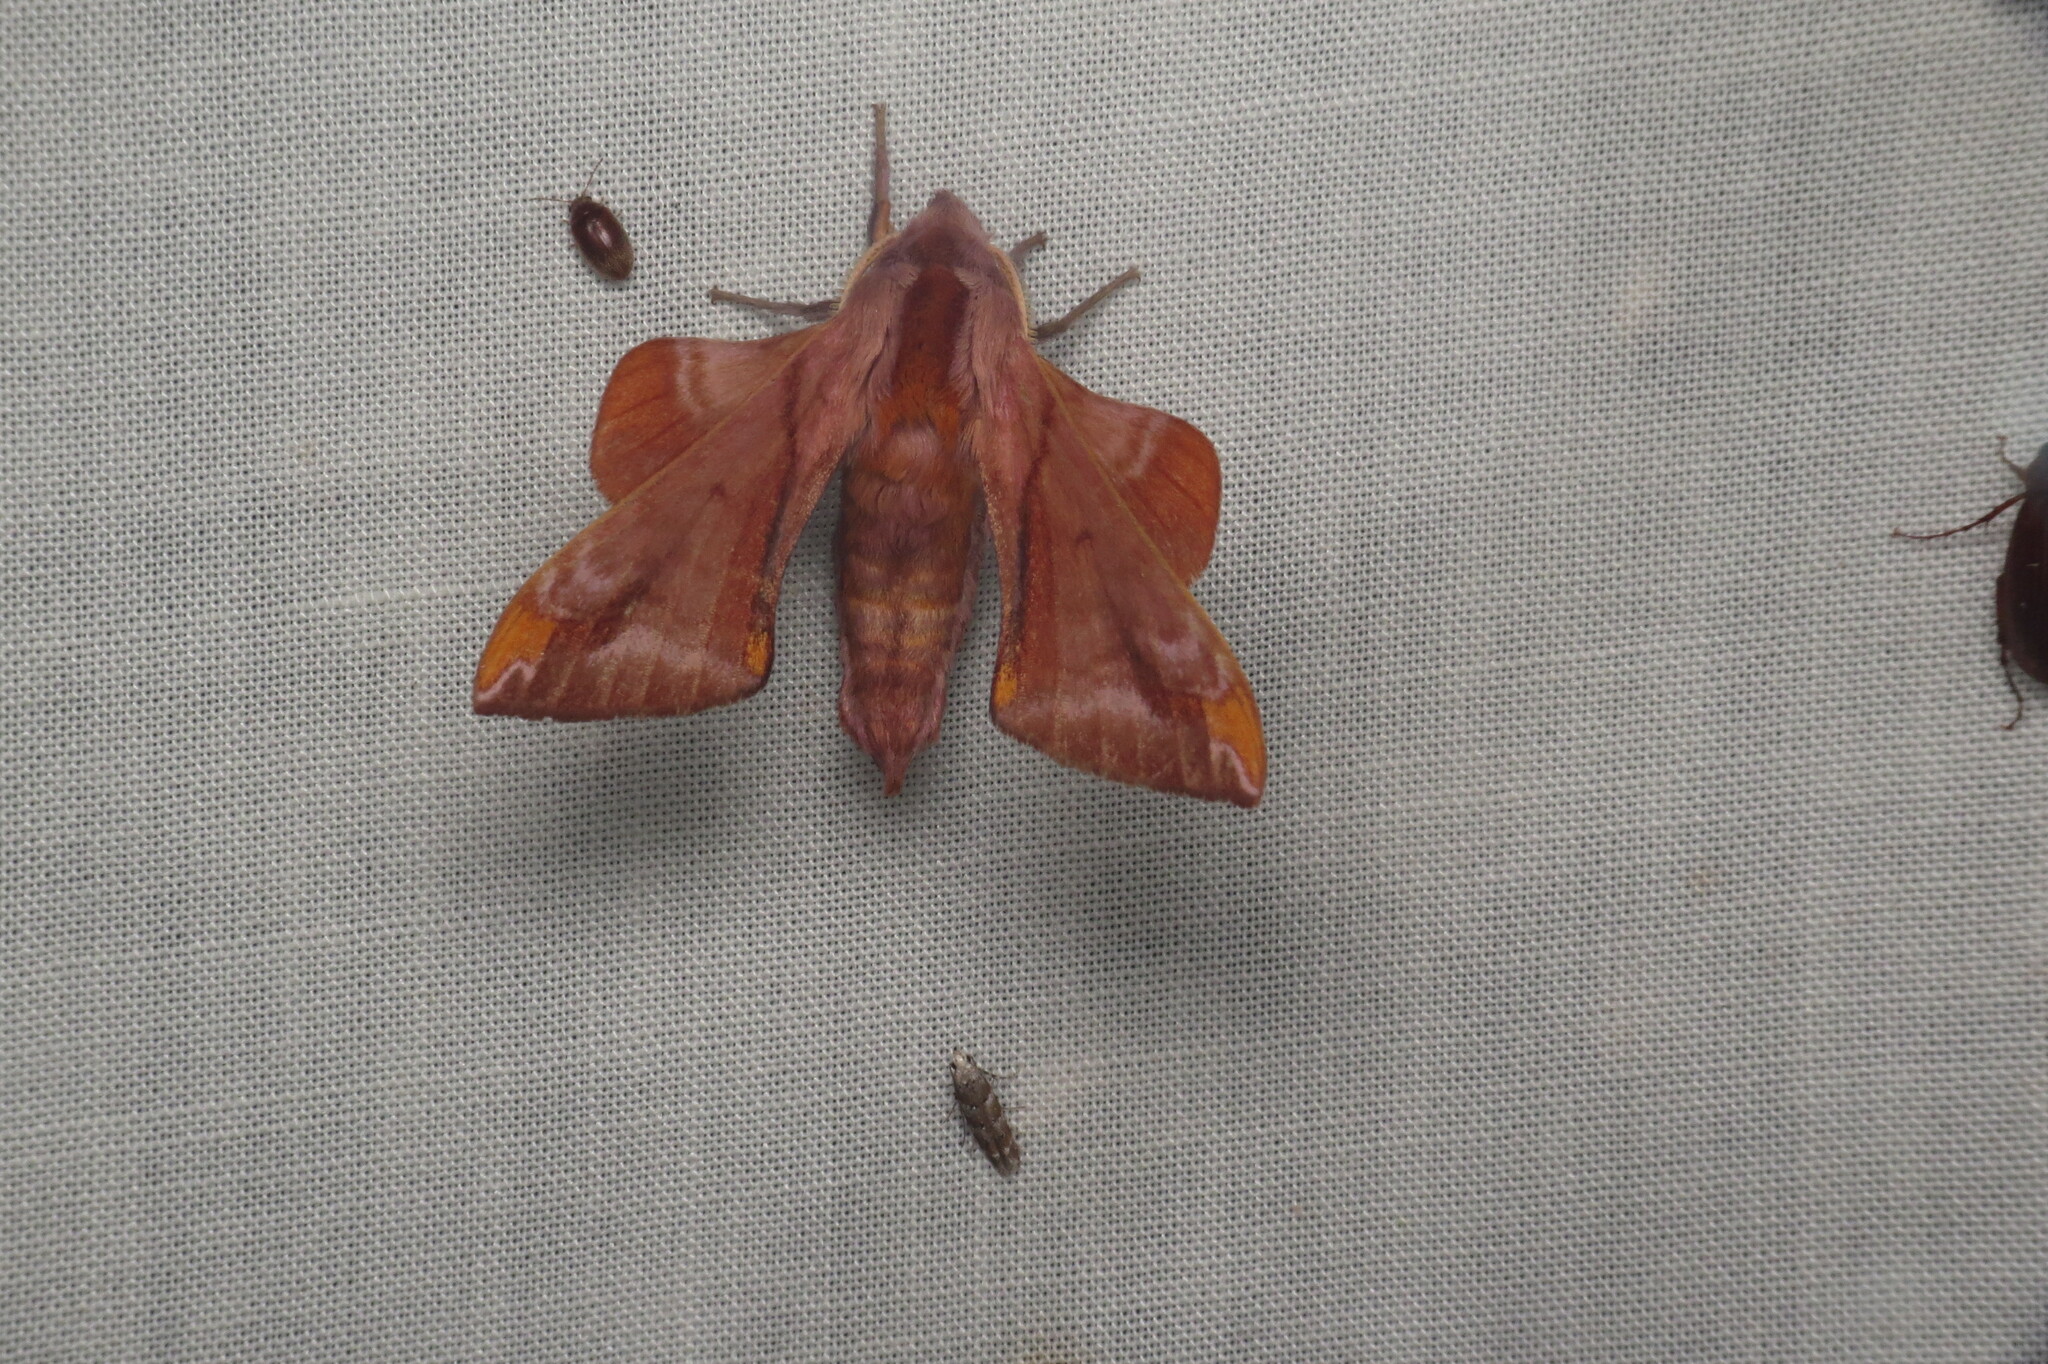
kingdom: Animalia
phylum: Arthropoda
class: Insecta
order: Lepidoptera
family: Sphingidae
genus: Paonias
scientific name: Paonias astylus
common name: Huckleberry sphinx
